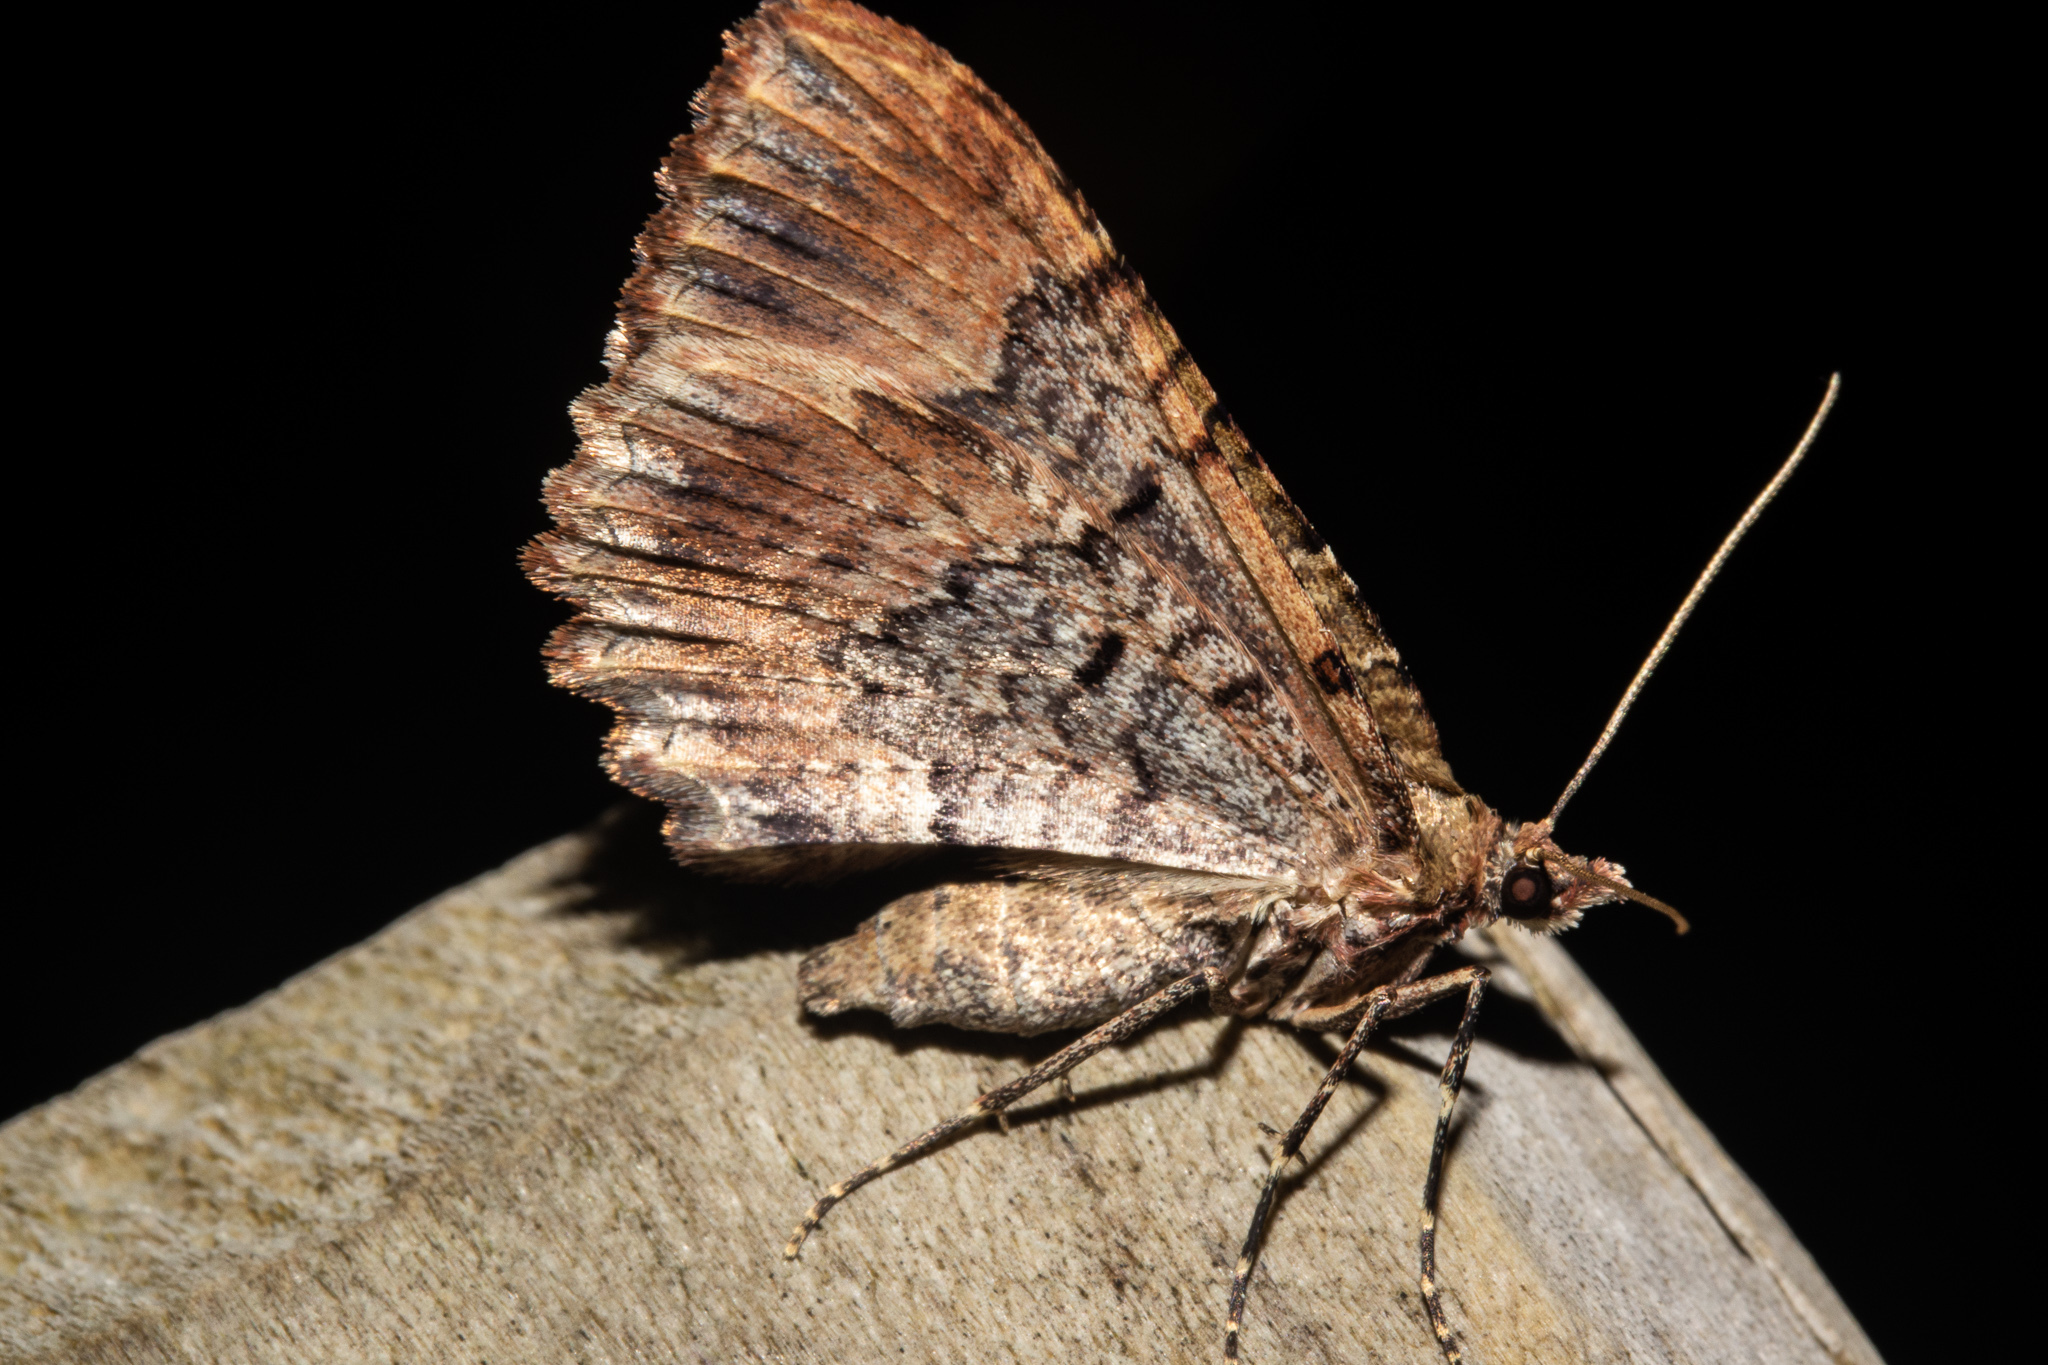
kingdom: Animalia
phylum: Arthropoda
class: Insecta
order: Lepidoptera
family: Geometridae
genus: Austrocidaria
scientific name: Austrocidaria cedrinodes
